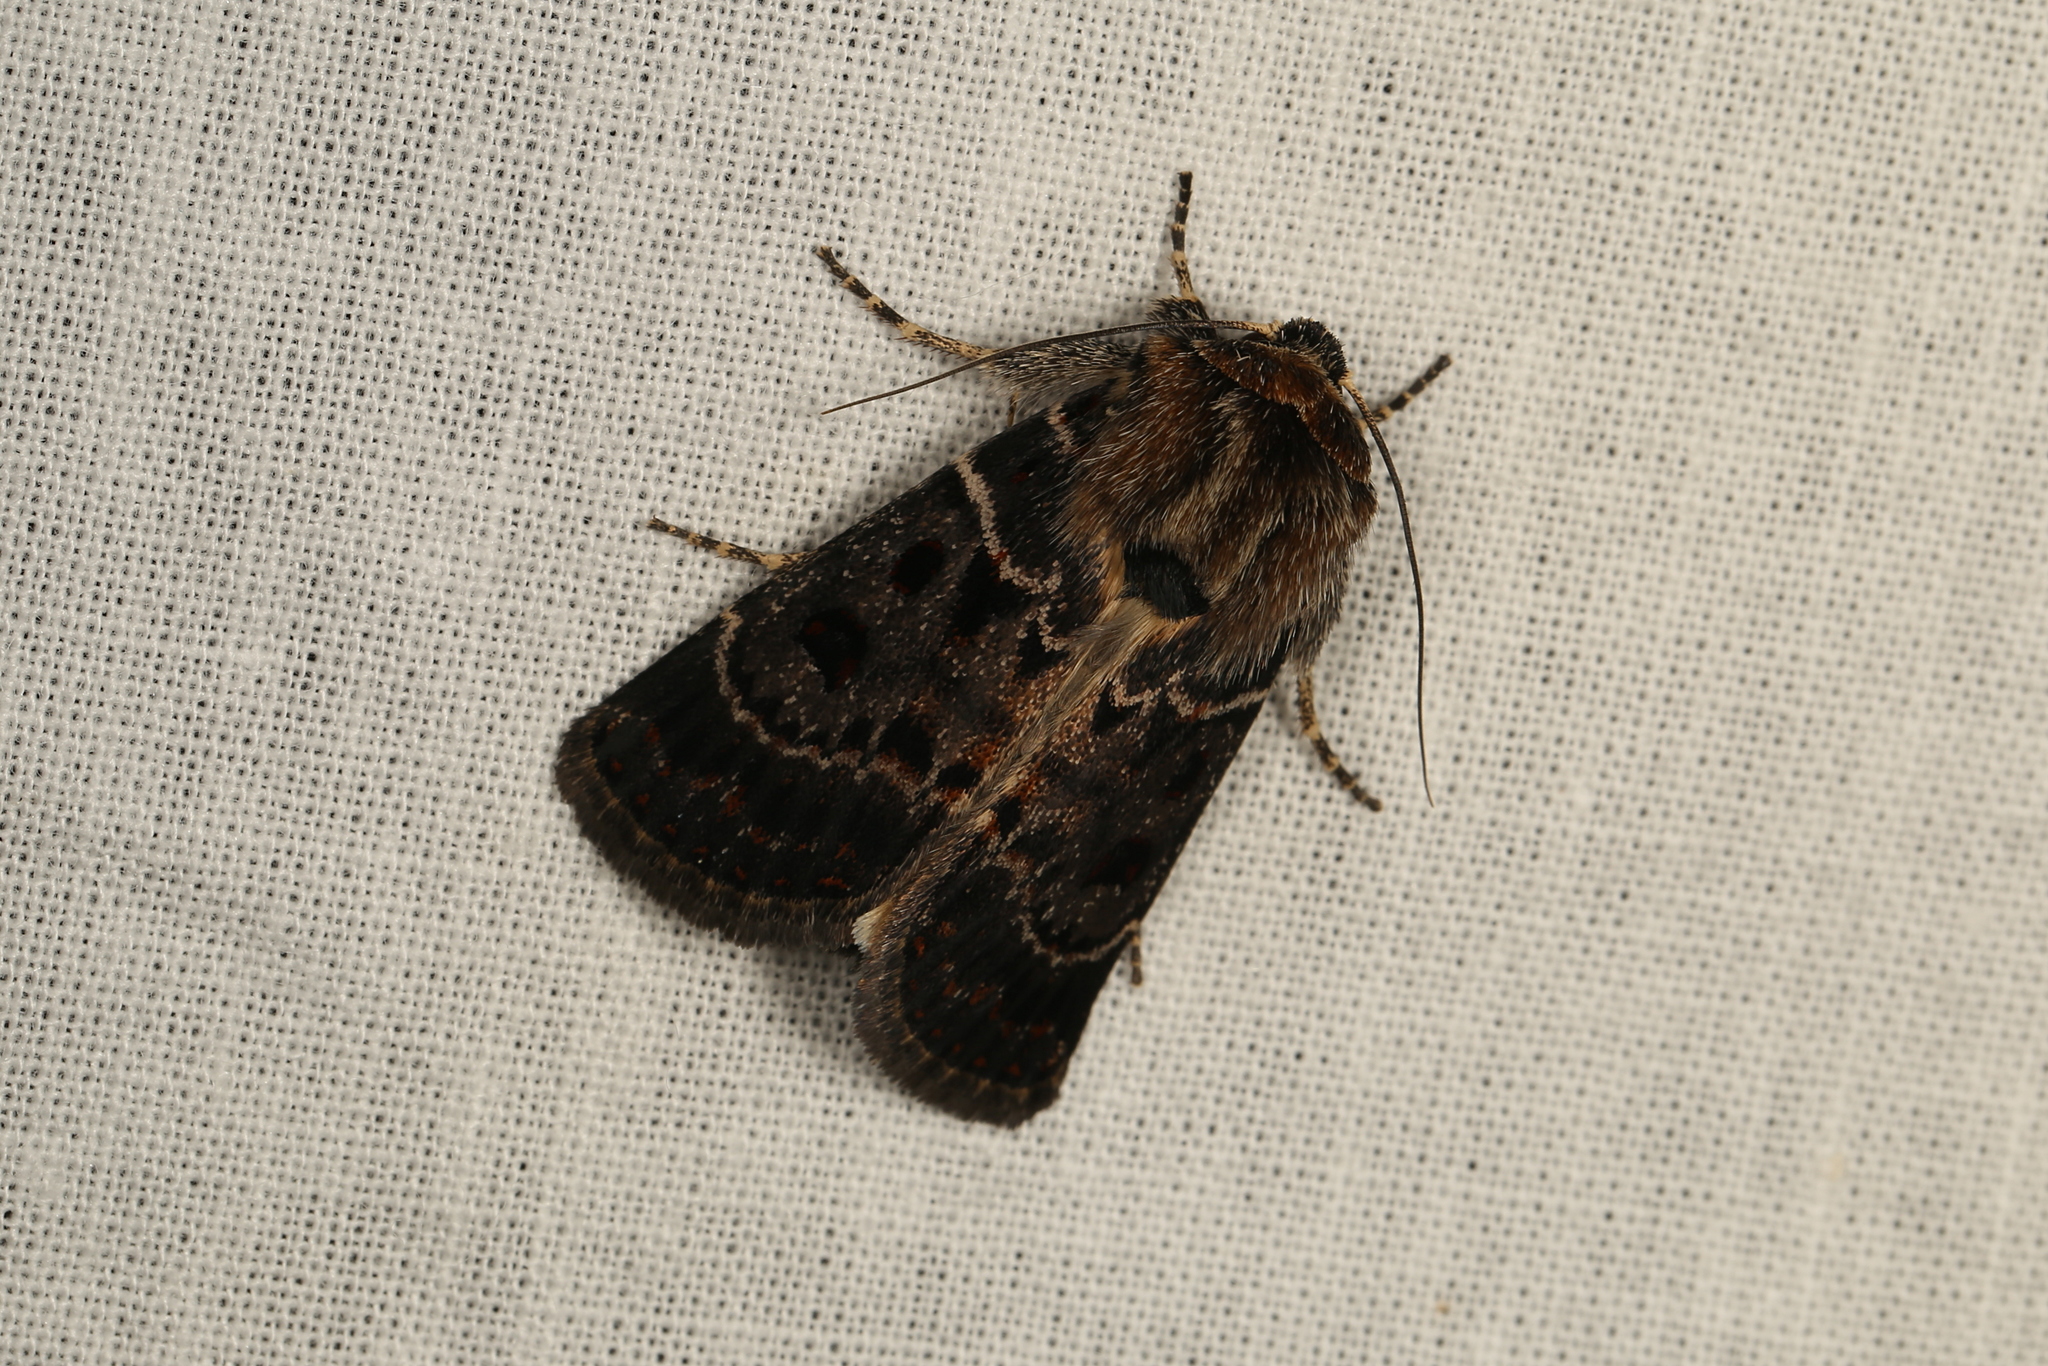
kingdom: Animalia
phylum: Arthropoda
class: Insecta
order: Lepidoptera
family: Noctuidae
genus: Proteuxoa
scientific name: Proteuxoa sanguinipuncta
